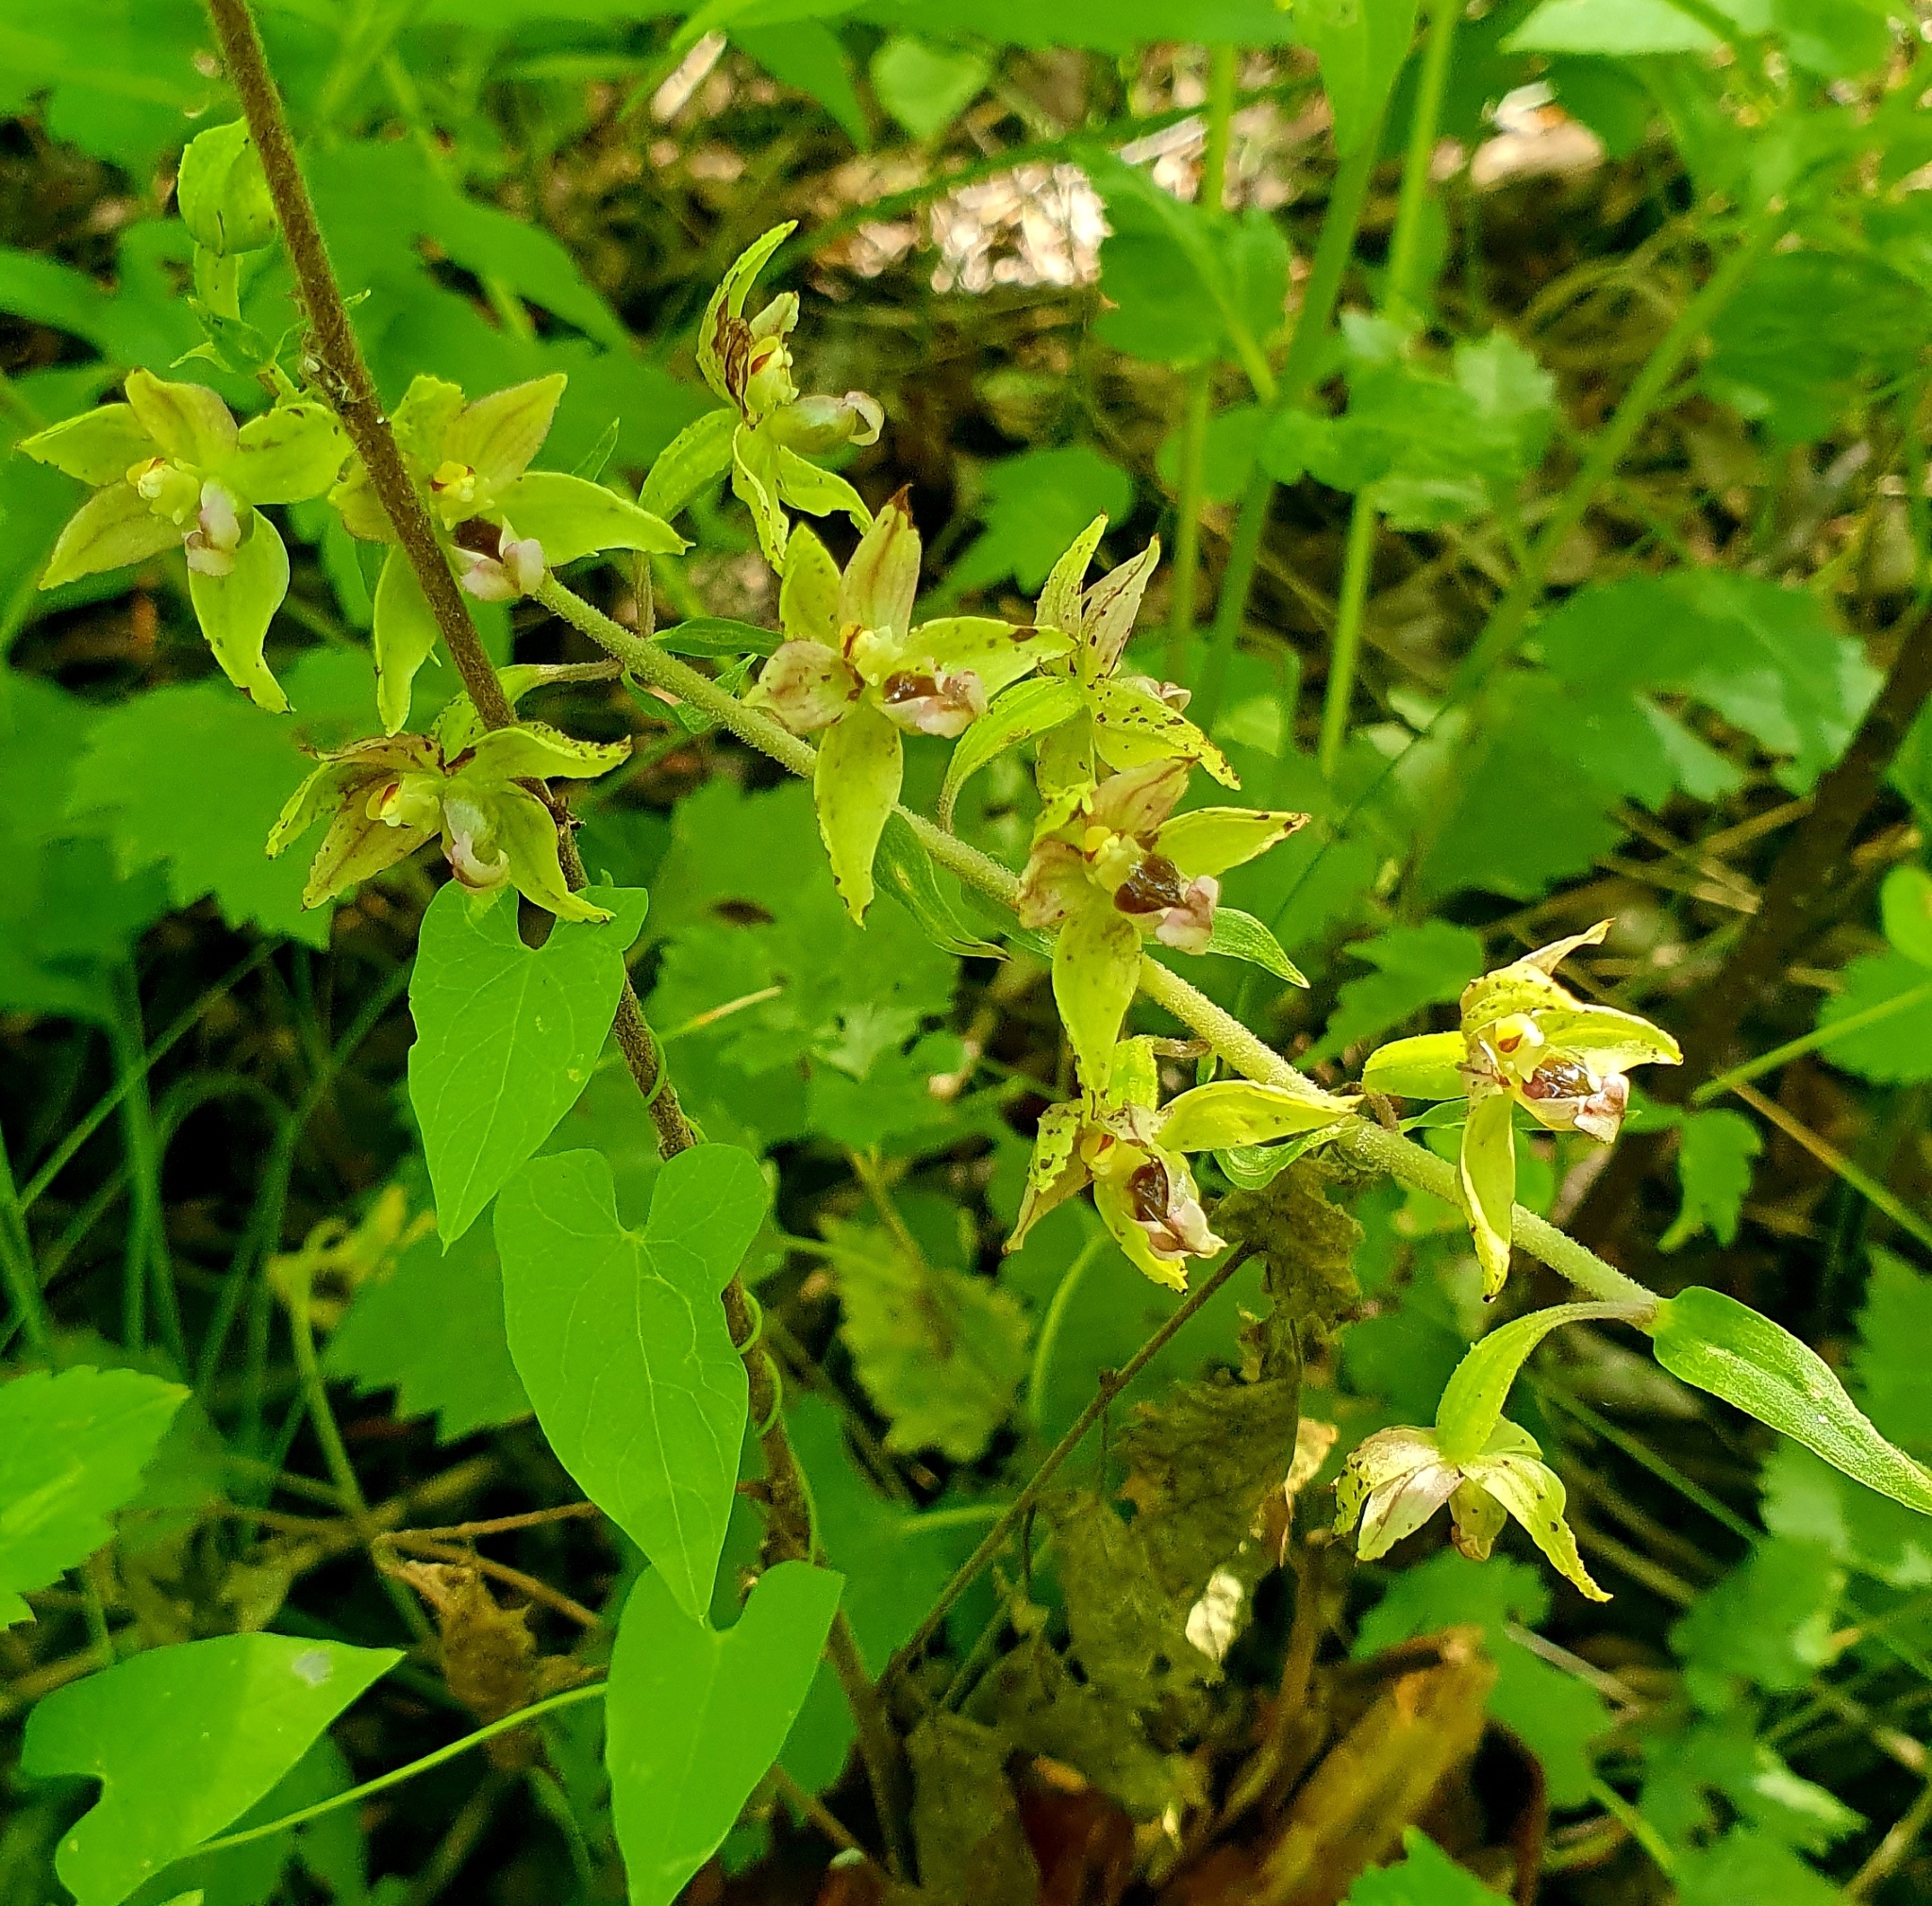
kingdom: Plantae
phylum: Tracheophyta
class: Liliopsida
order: Asparagales
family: Orchidaceae
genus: Epipactis
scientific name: Epipactis helleborine
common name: Broad-leaved helleborine
